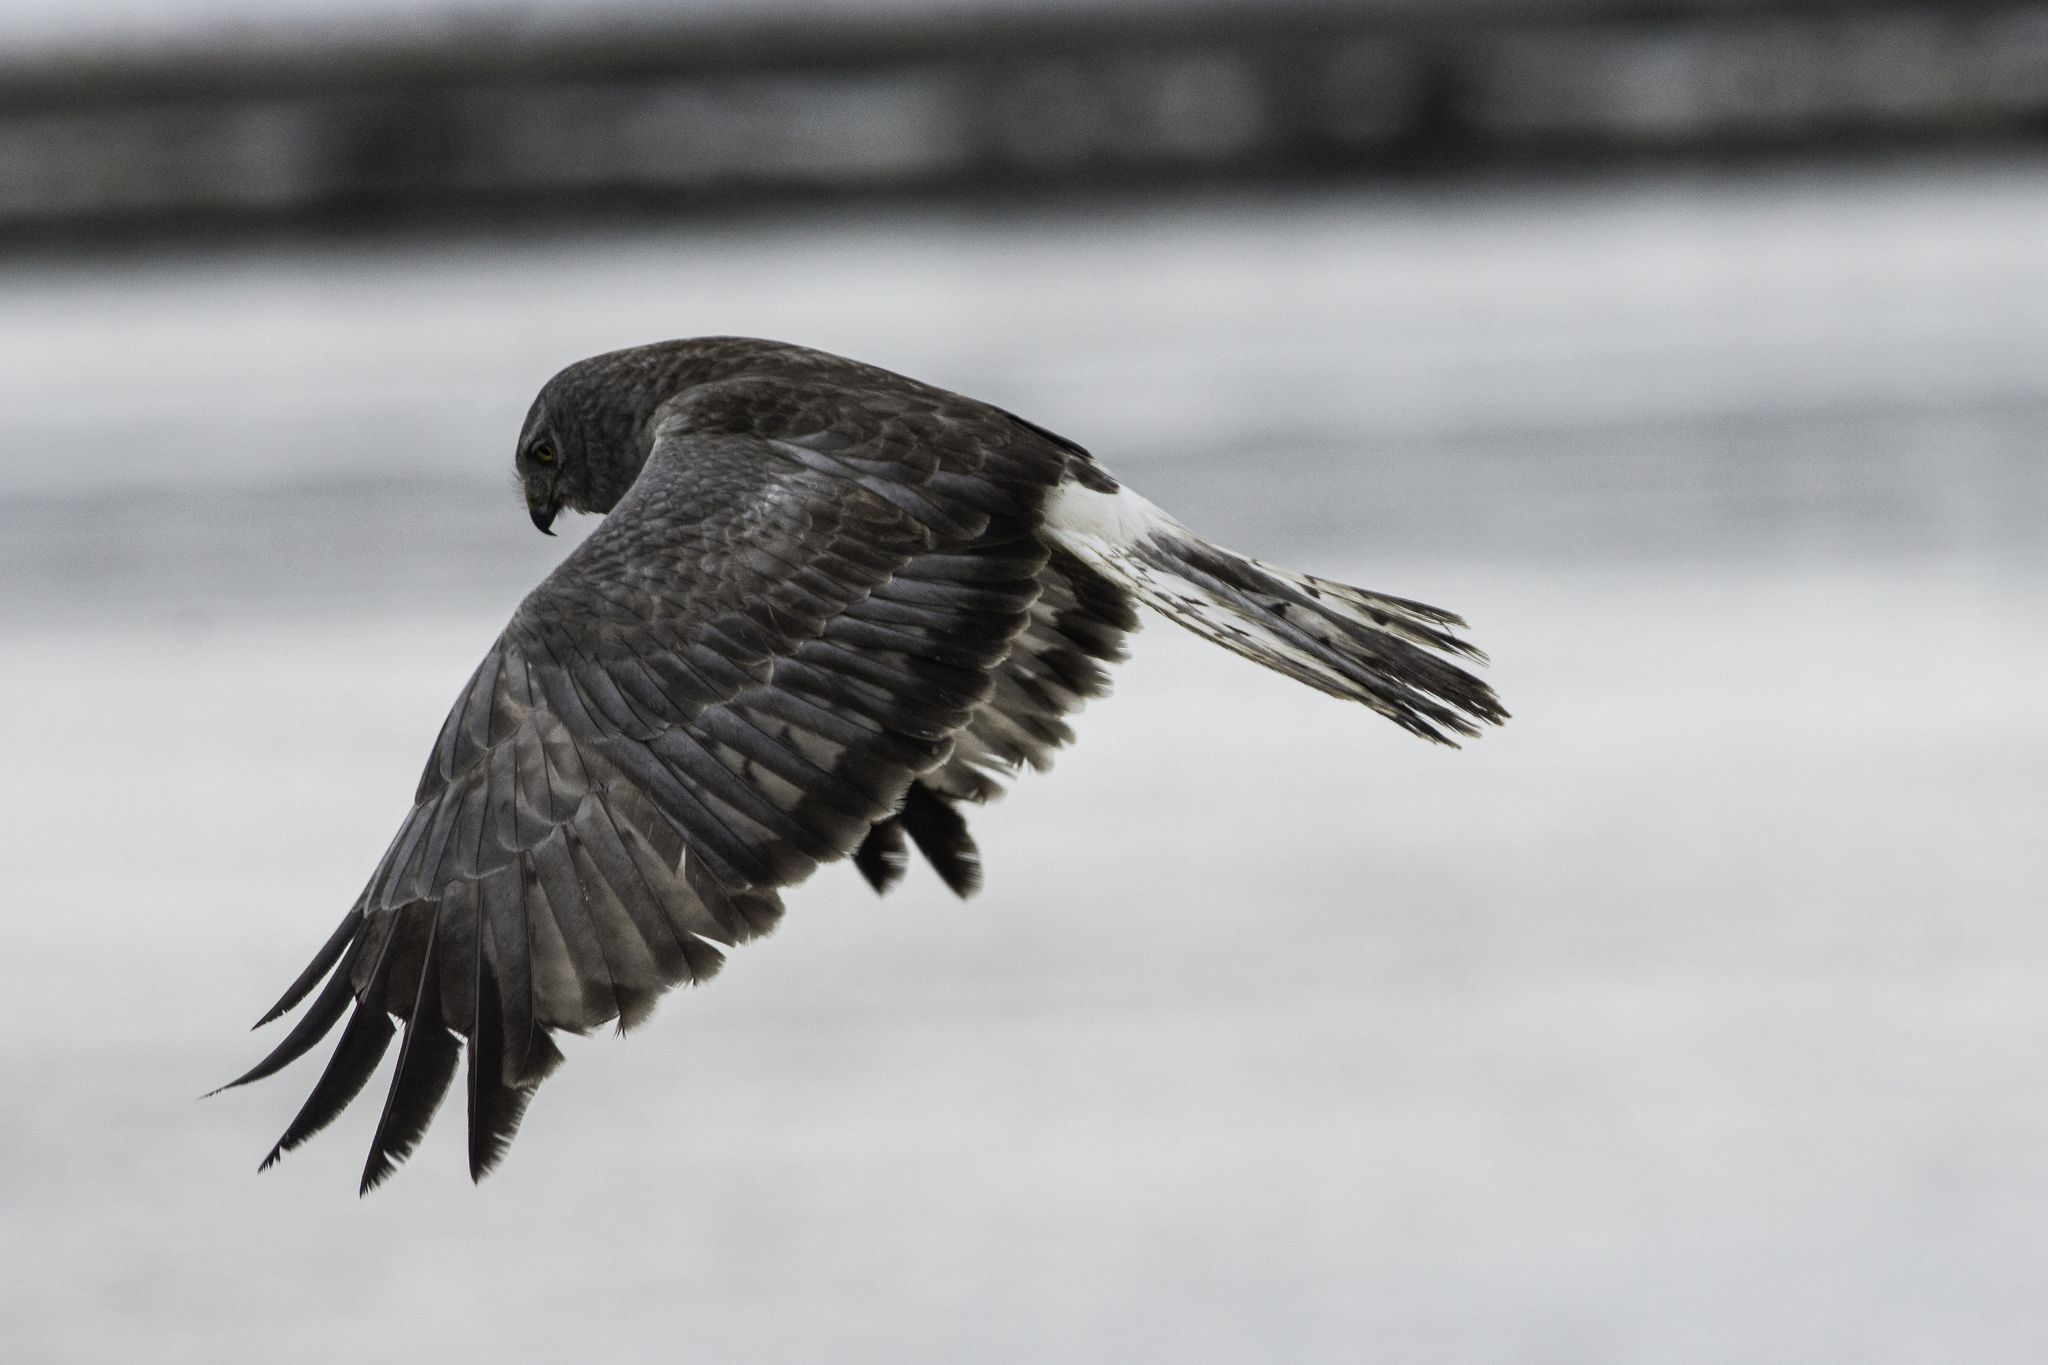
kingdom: Animalia
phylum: Chordata
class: Aves
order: Accipitriformes
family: Accipitridae
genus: Circus
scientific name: Circus cyaneus
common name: Hen harrier
